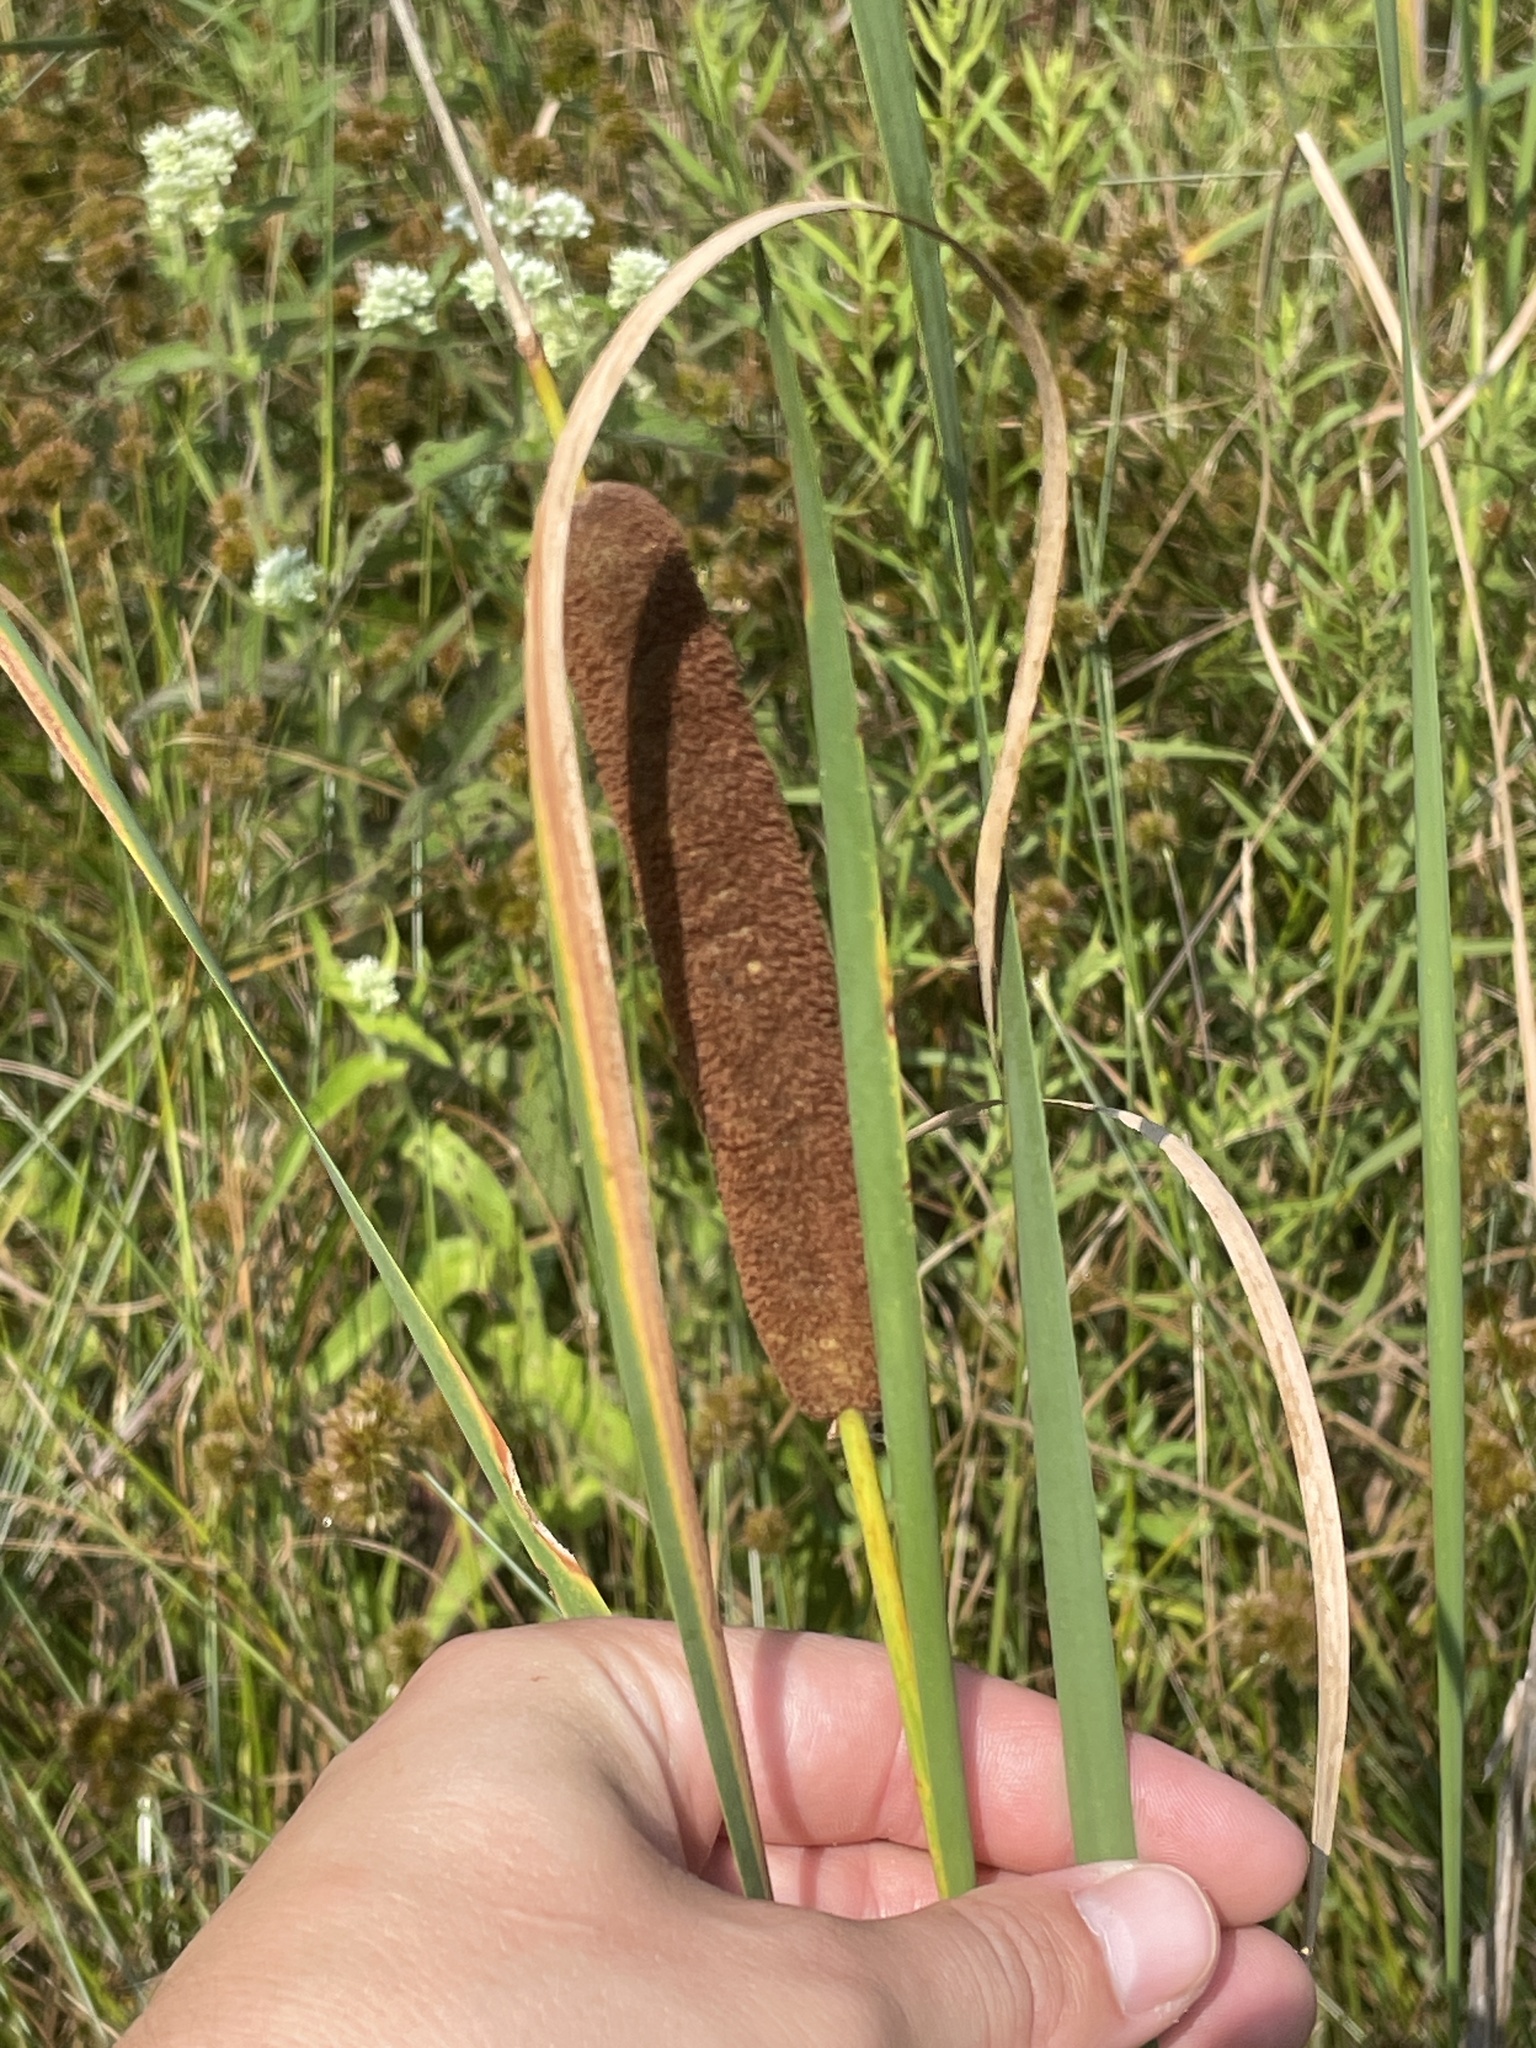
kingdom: Plantae
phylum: Tracheophyta
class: Liliopsida
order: Poales
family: Typhaceae
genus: Typha
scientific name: Typha angustifolia
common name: Lesser bulrush
